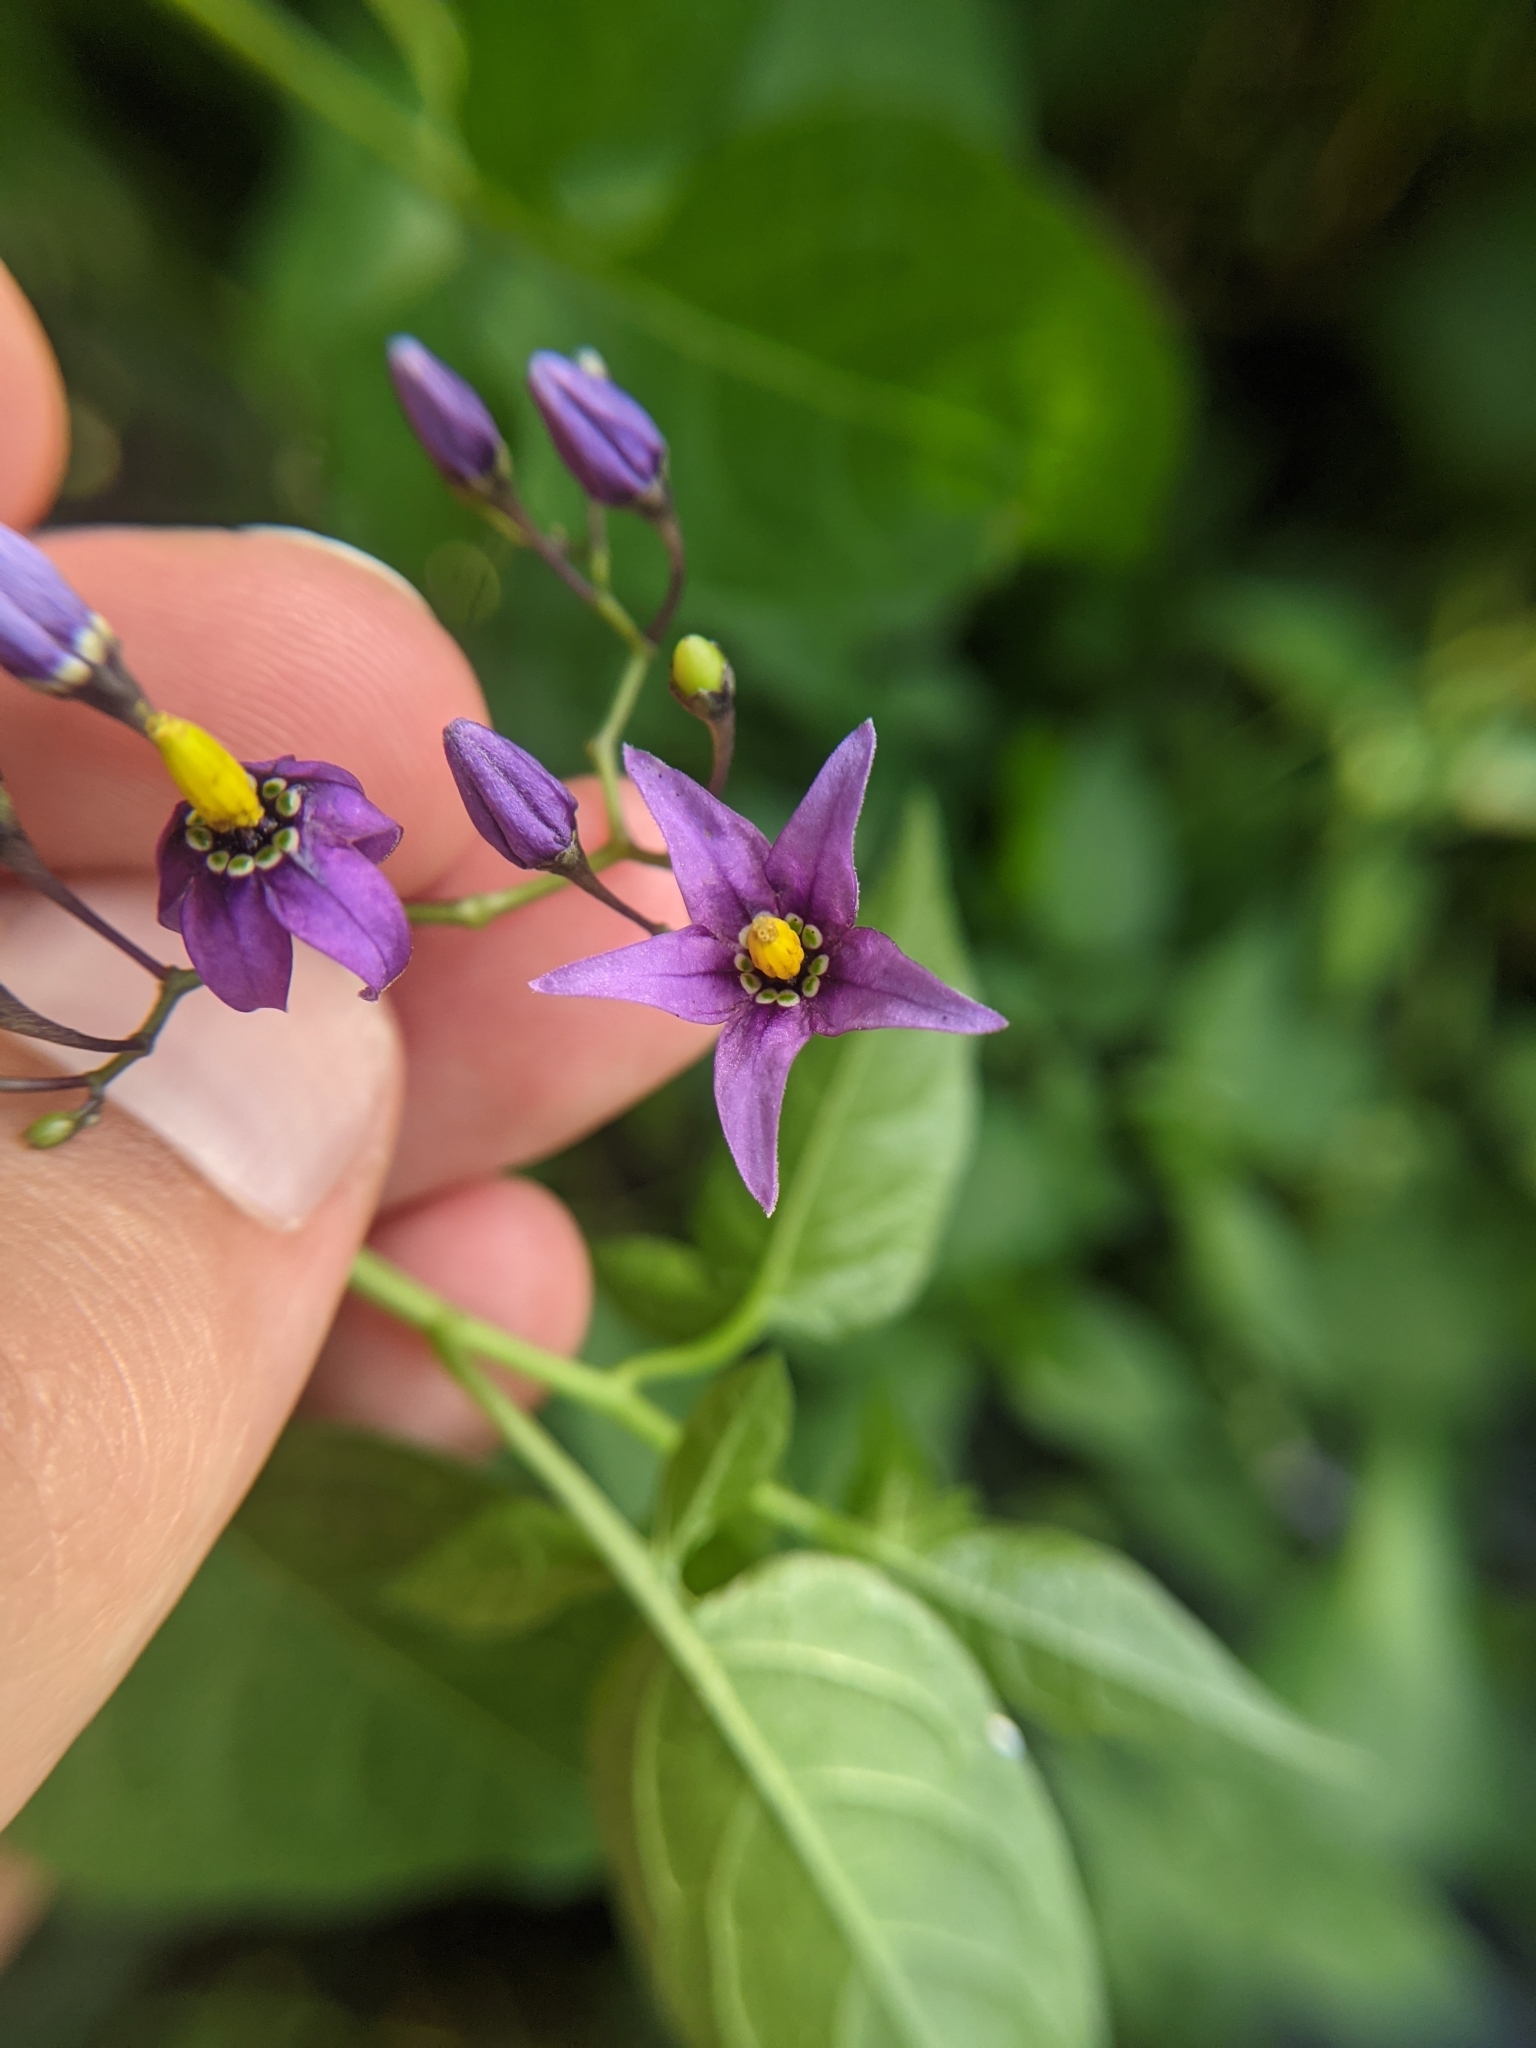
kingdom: Plantae
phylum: Tracheophyta
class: Magnoliopsida
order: Solanales
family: Solanaceae
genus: Solanum
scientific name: Solanum dulcamara
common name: Climbing nightshade
